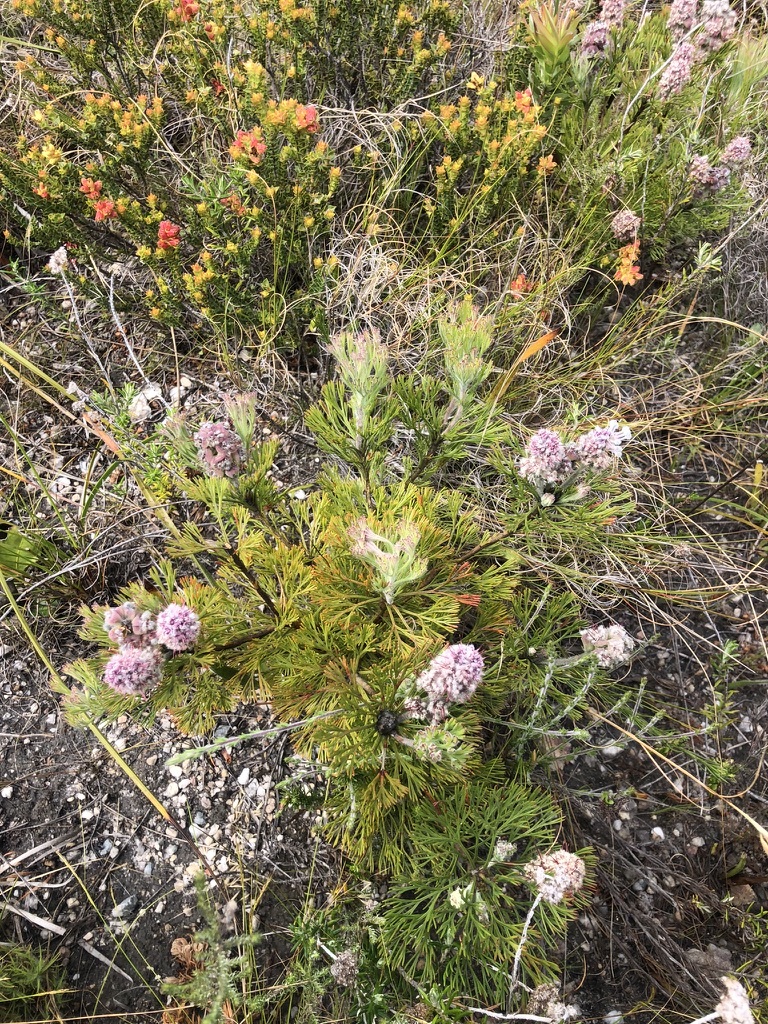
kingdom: Plantae
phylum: Tracheophyta
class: Magnoliopsida
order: Proteales
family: Proteaceae
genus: Paranomus
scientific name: Paranomus abrotanifolius
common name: Bredasdorp sceptre
